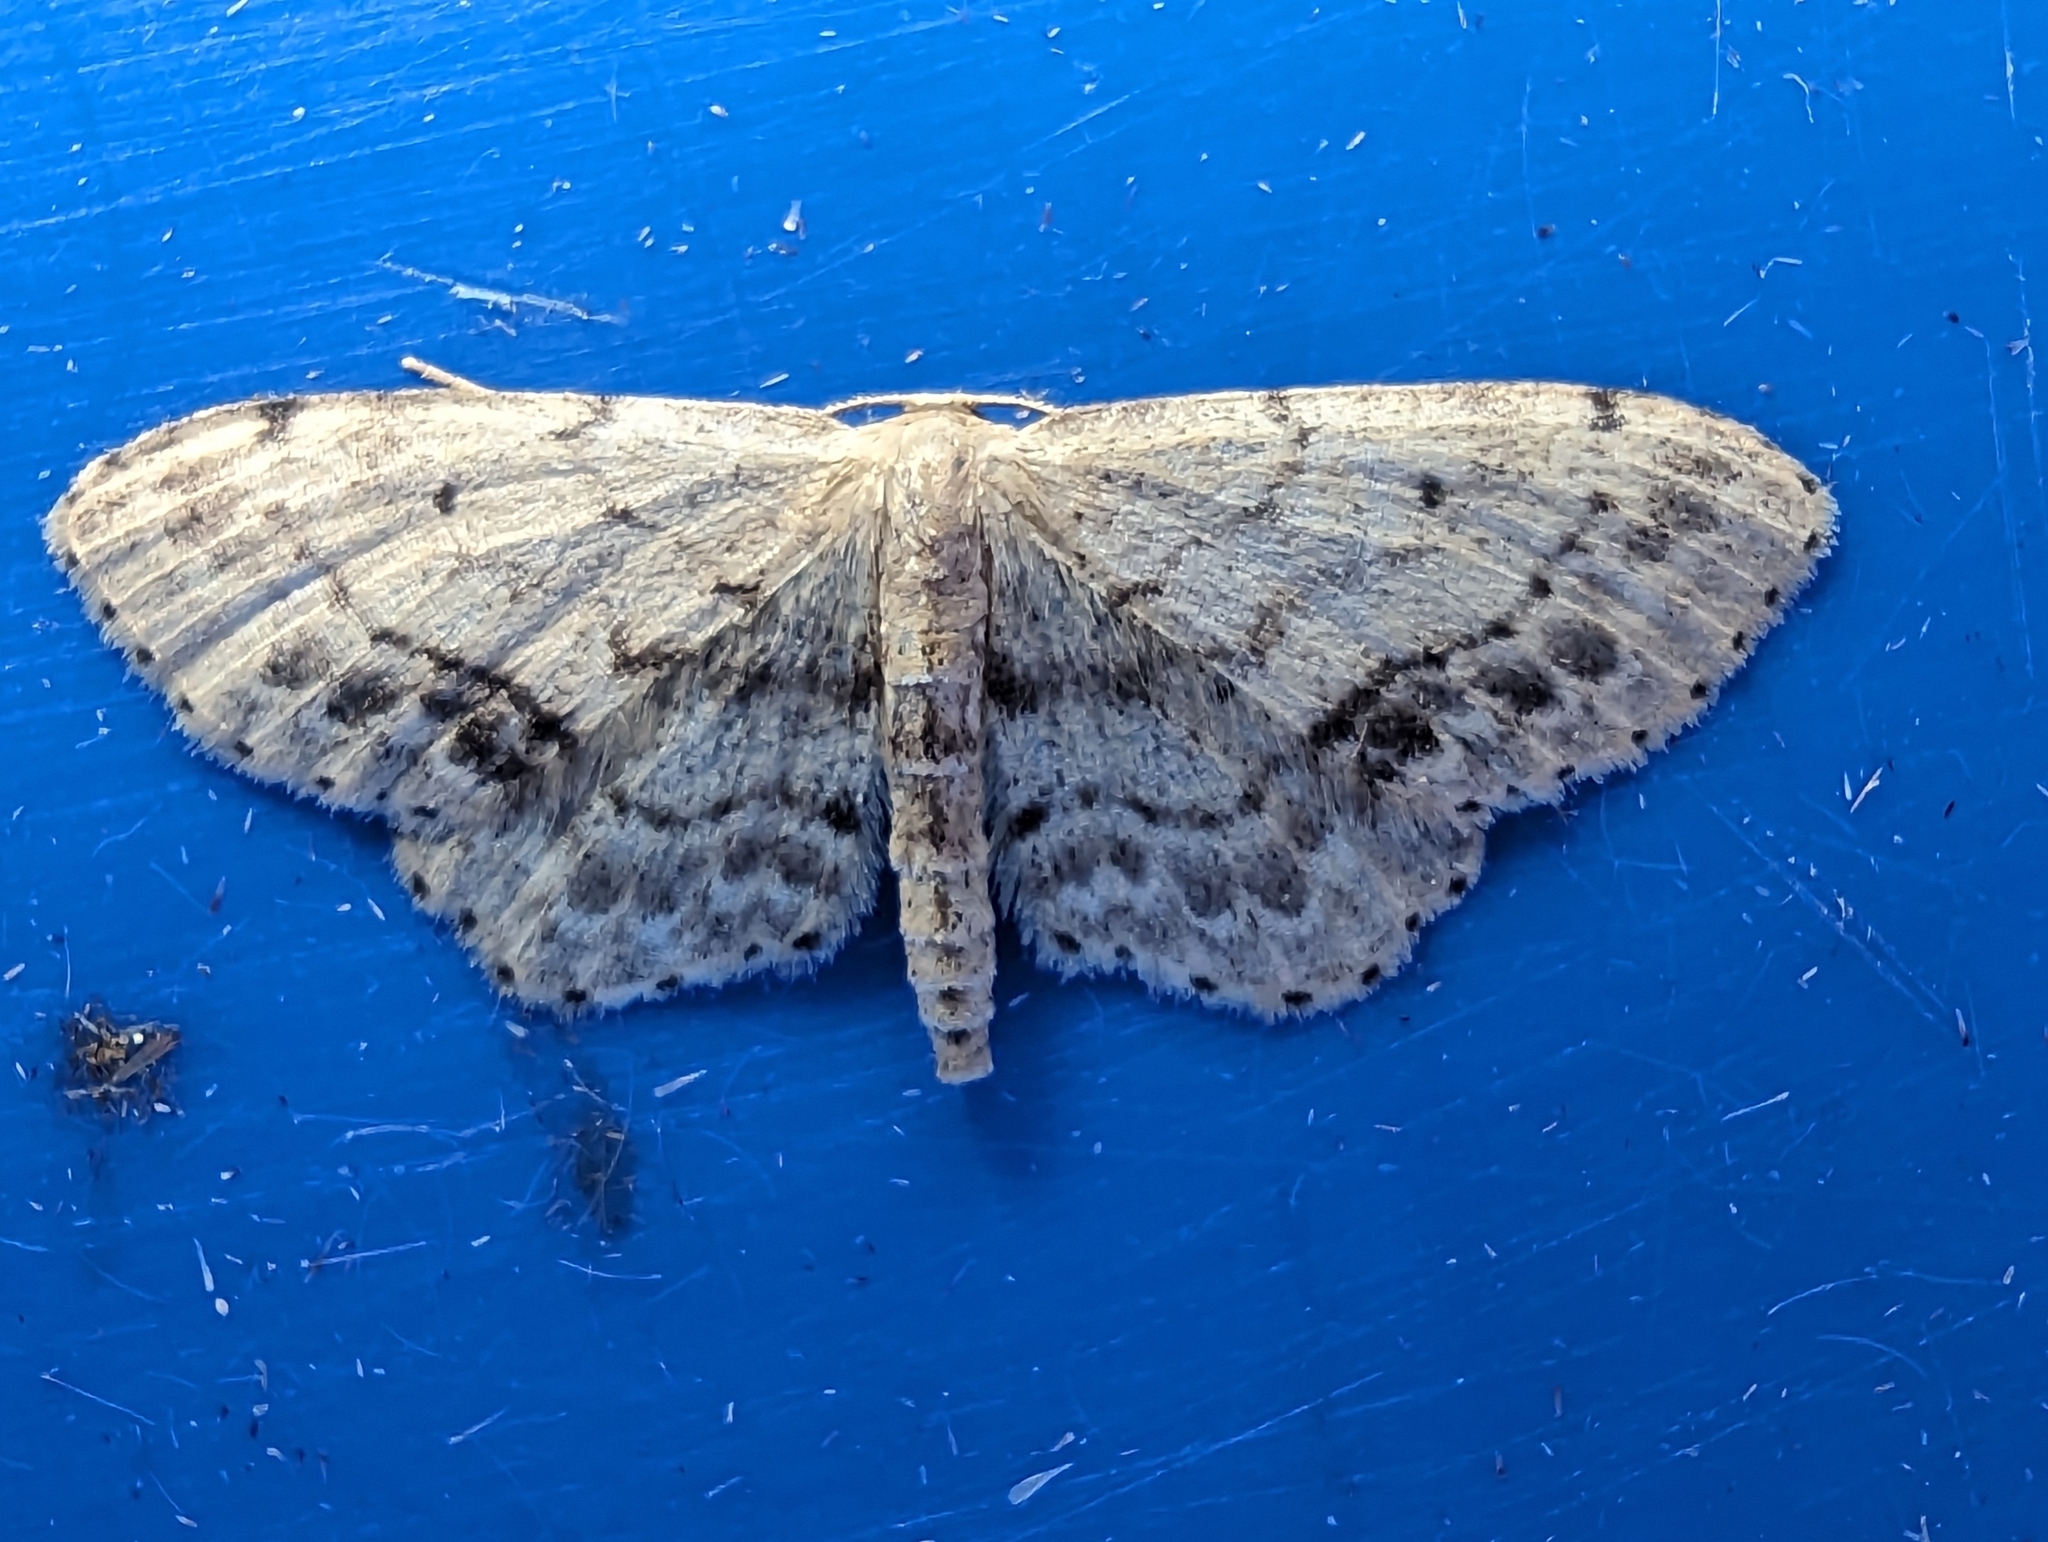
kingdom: Animalia
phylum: Arthropoda
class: Insecta
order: Lepidoptera
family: Geometridae
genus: Idaea
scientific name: Idaea dimidiata
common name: Single-dotted wave
